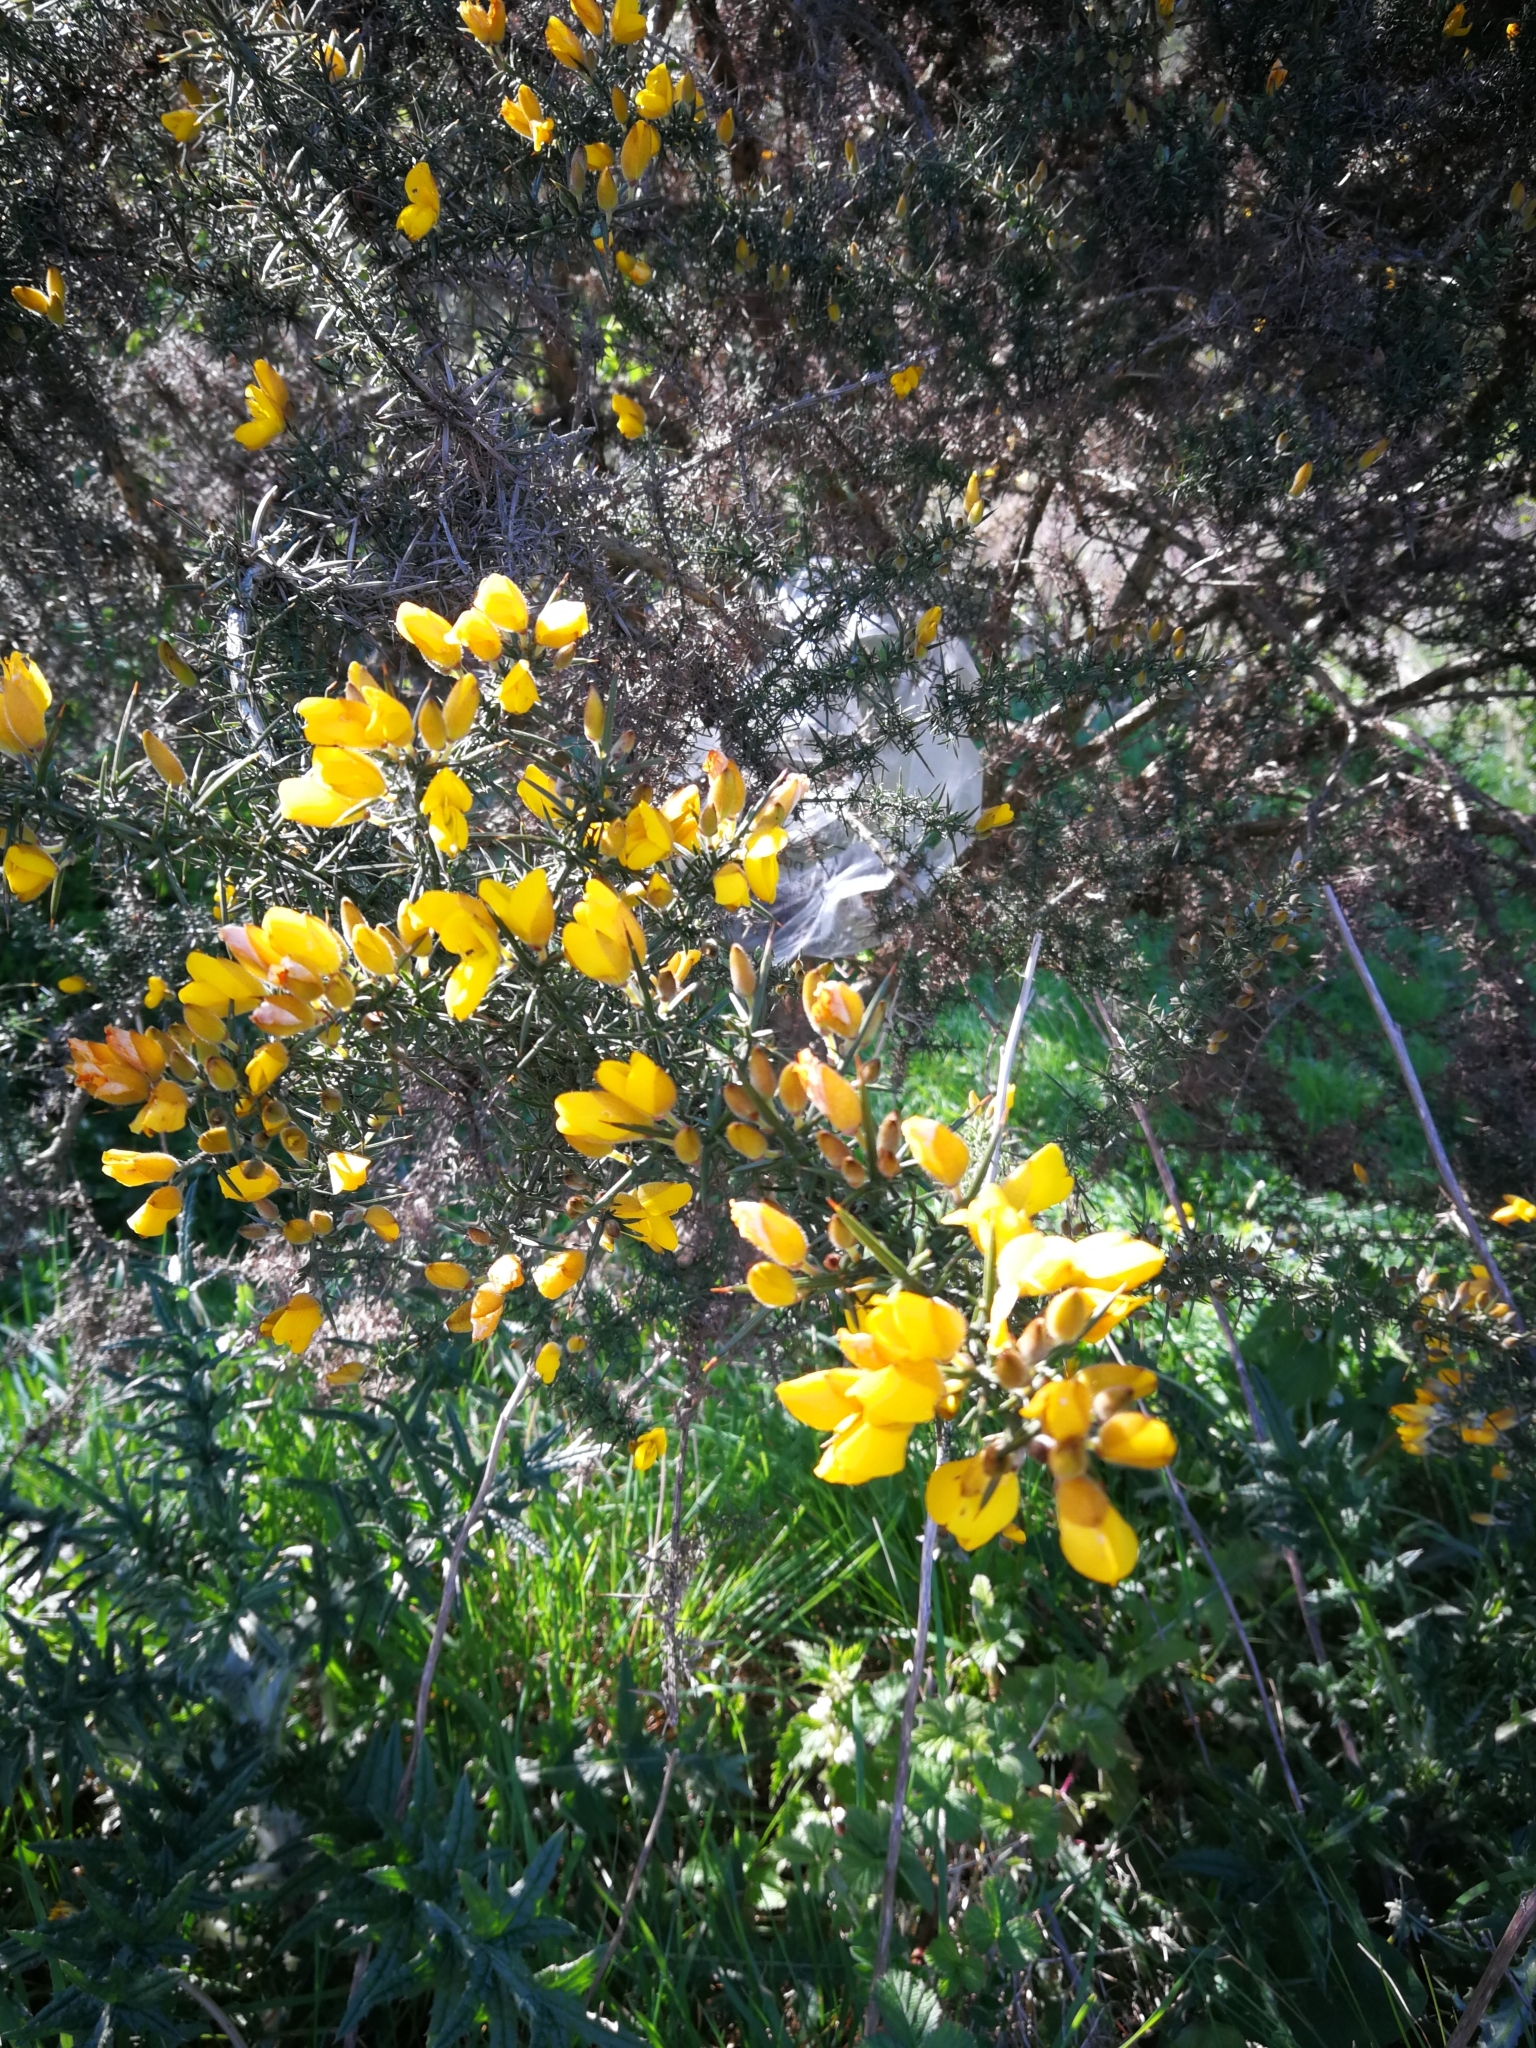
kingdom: Plantae
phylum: Tracheophyta
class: Magnoliopsida
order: Fabales
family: Fabaceae
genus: Ulex
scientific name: Ulex europaeus
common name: Common gorse
